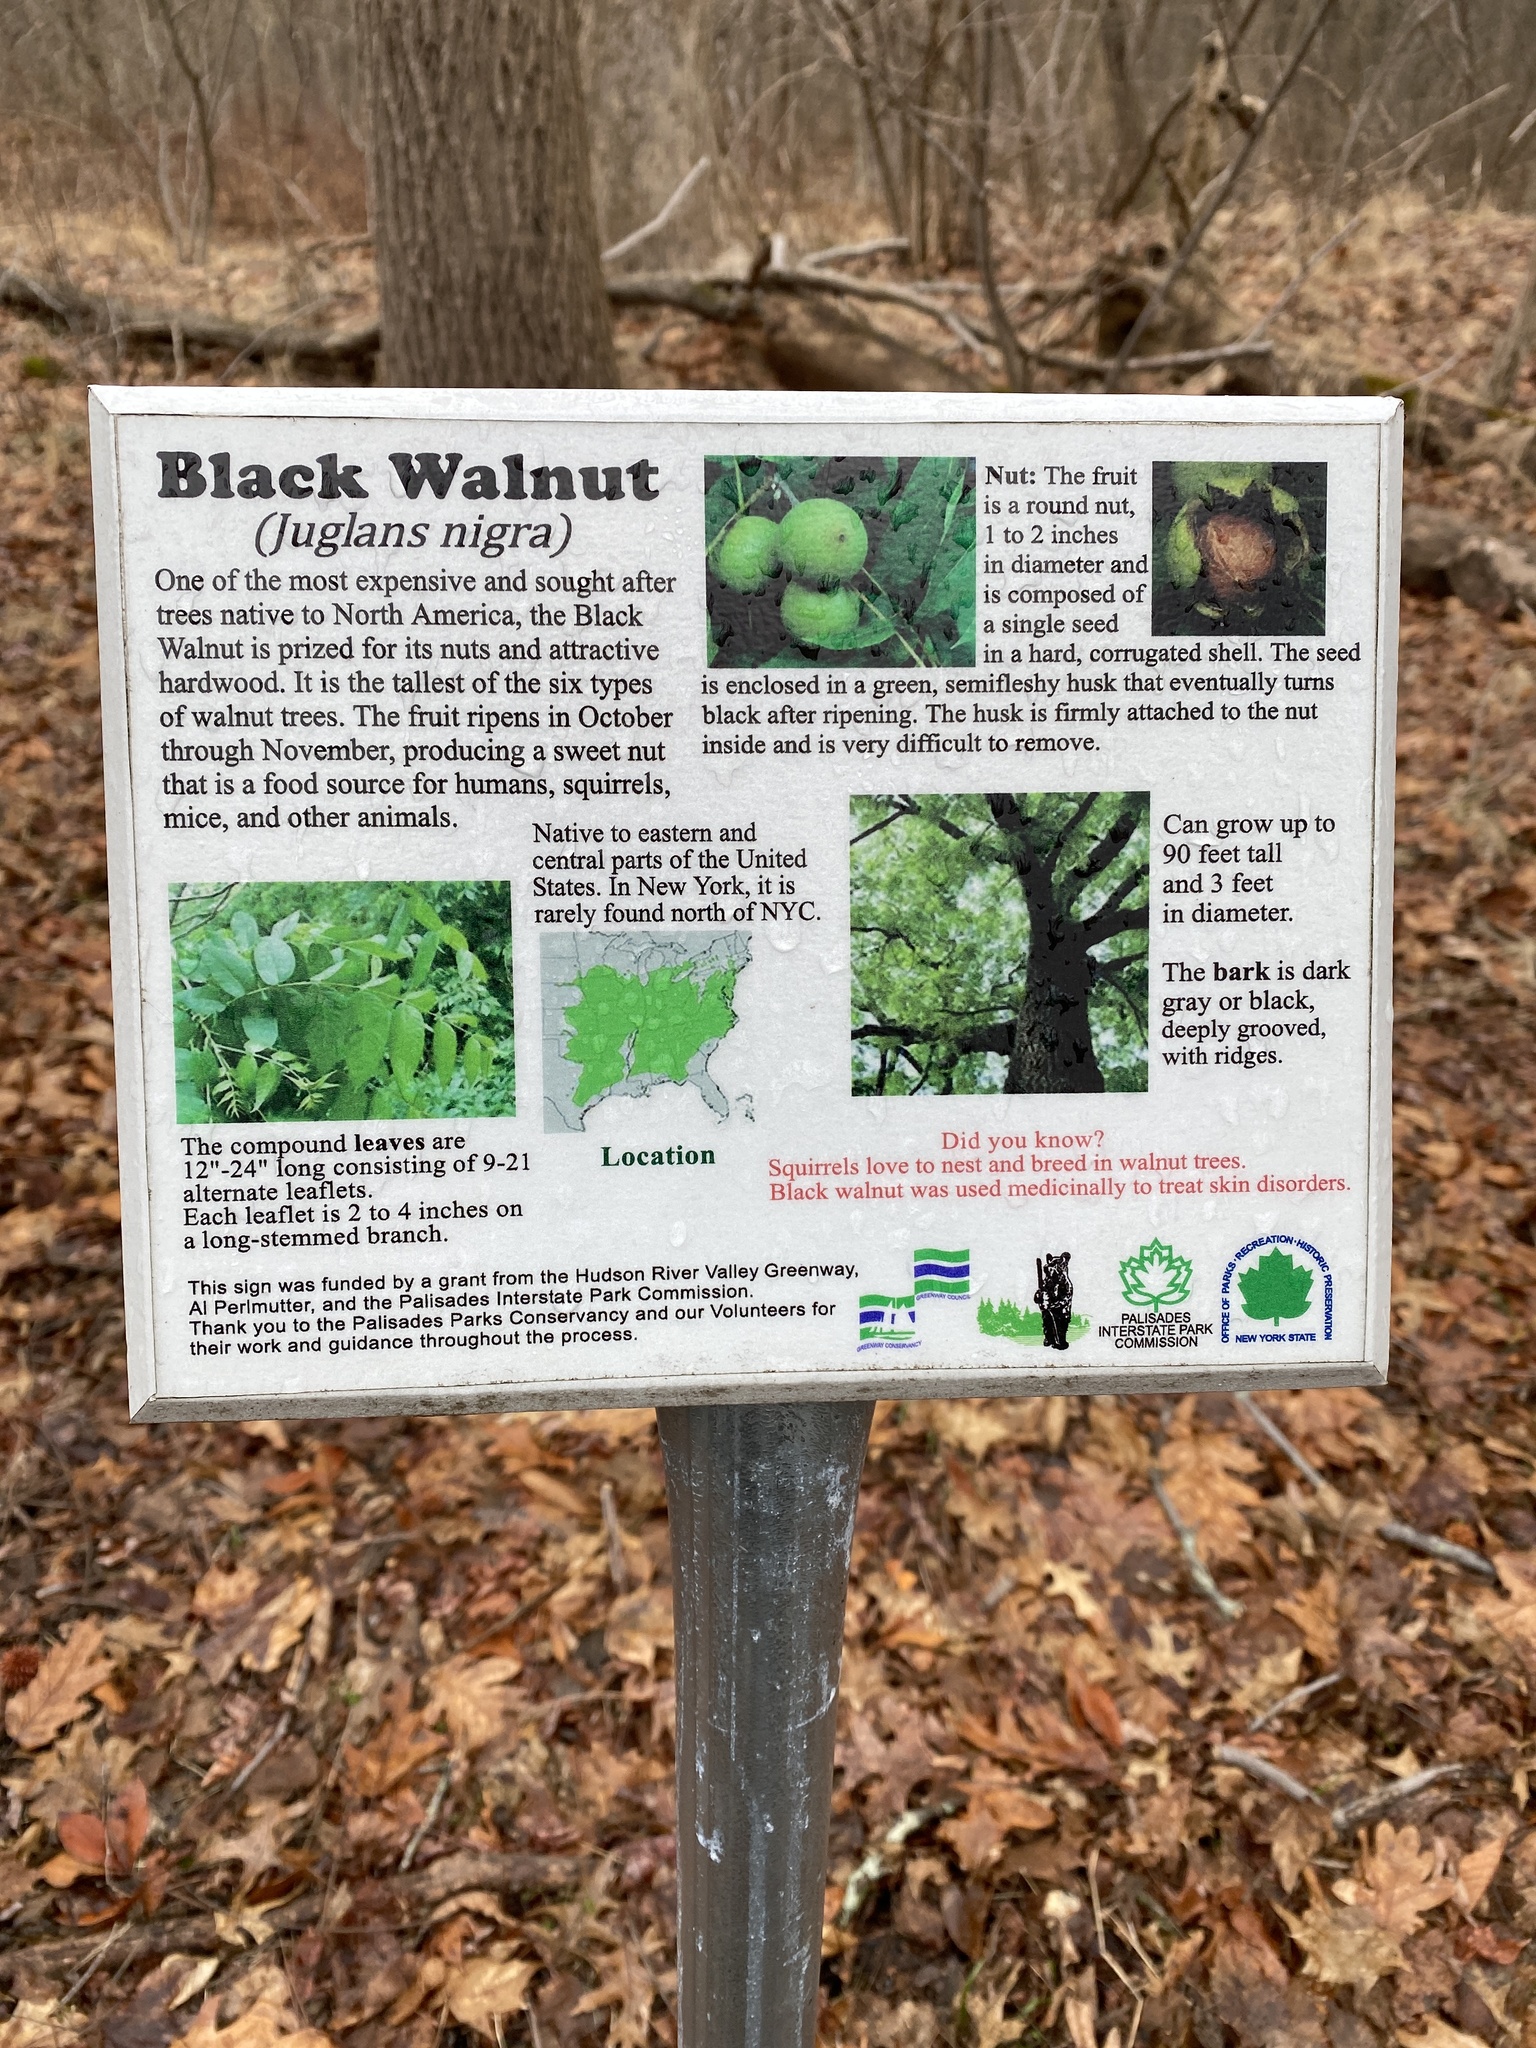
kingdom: Plantae
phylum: Tracheophyta
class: Magnoliopsida
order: Fagales
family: Juglandaceae
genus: Juglans
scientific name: Juglans nigra
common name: Black walnut
